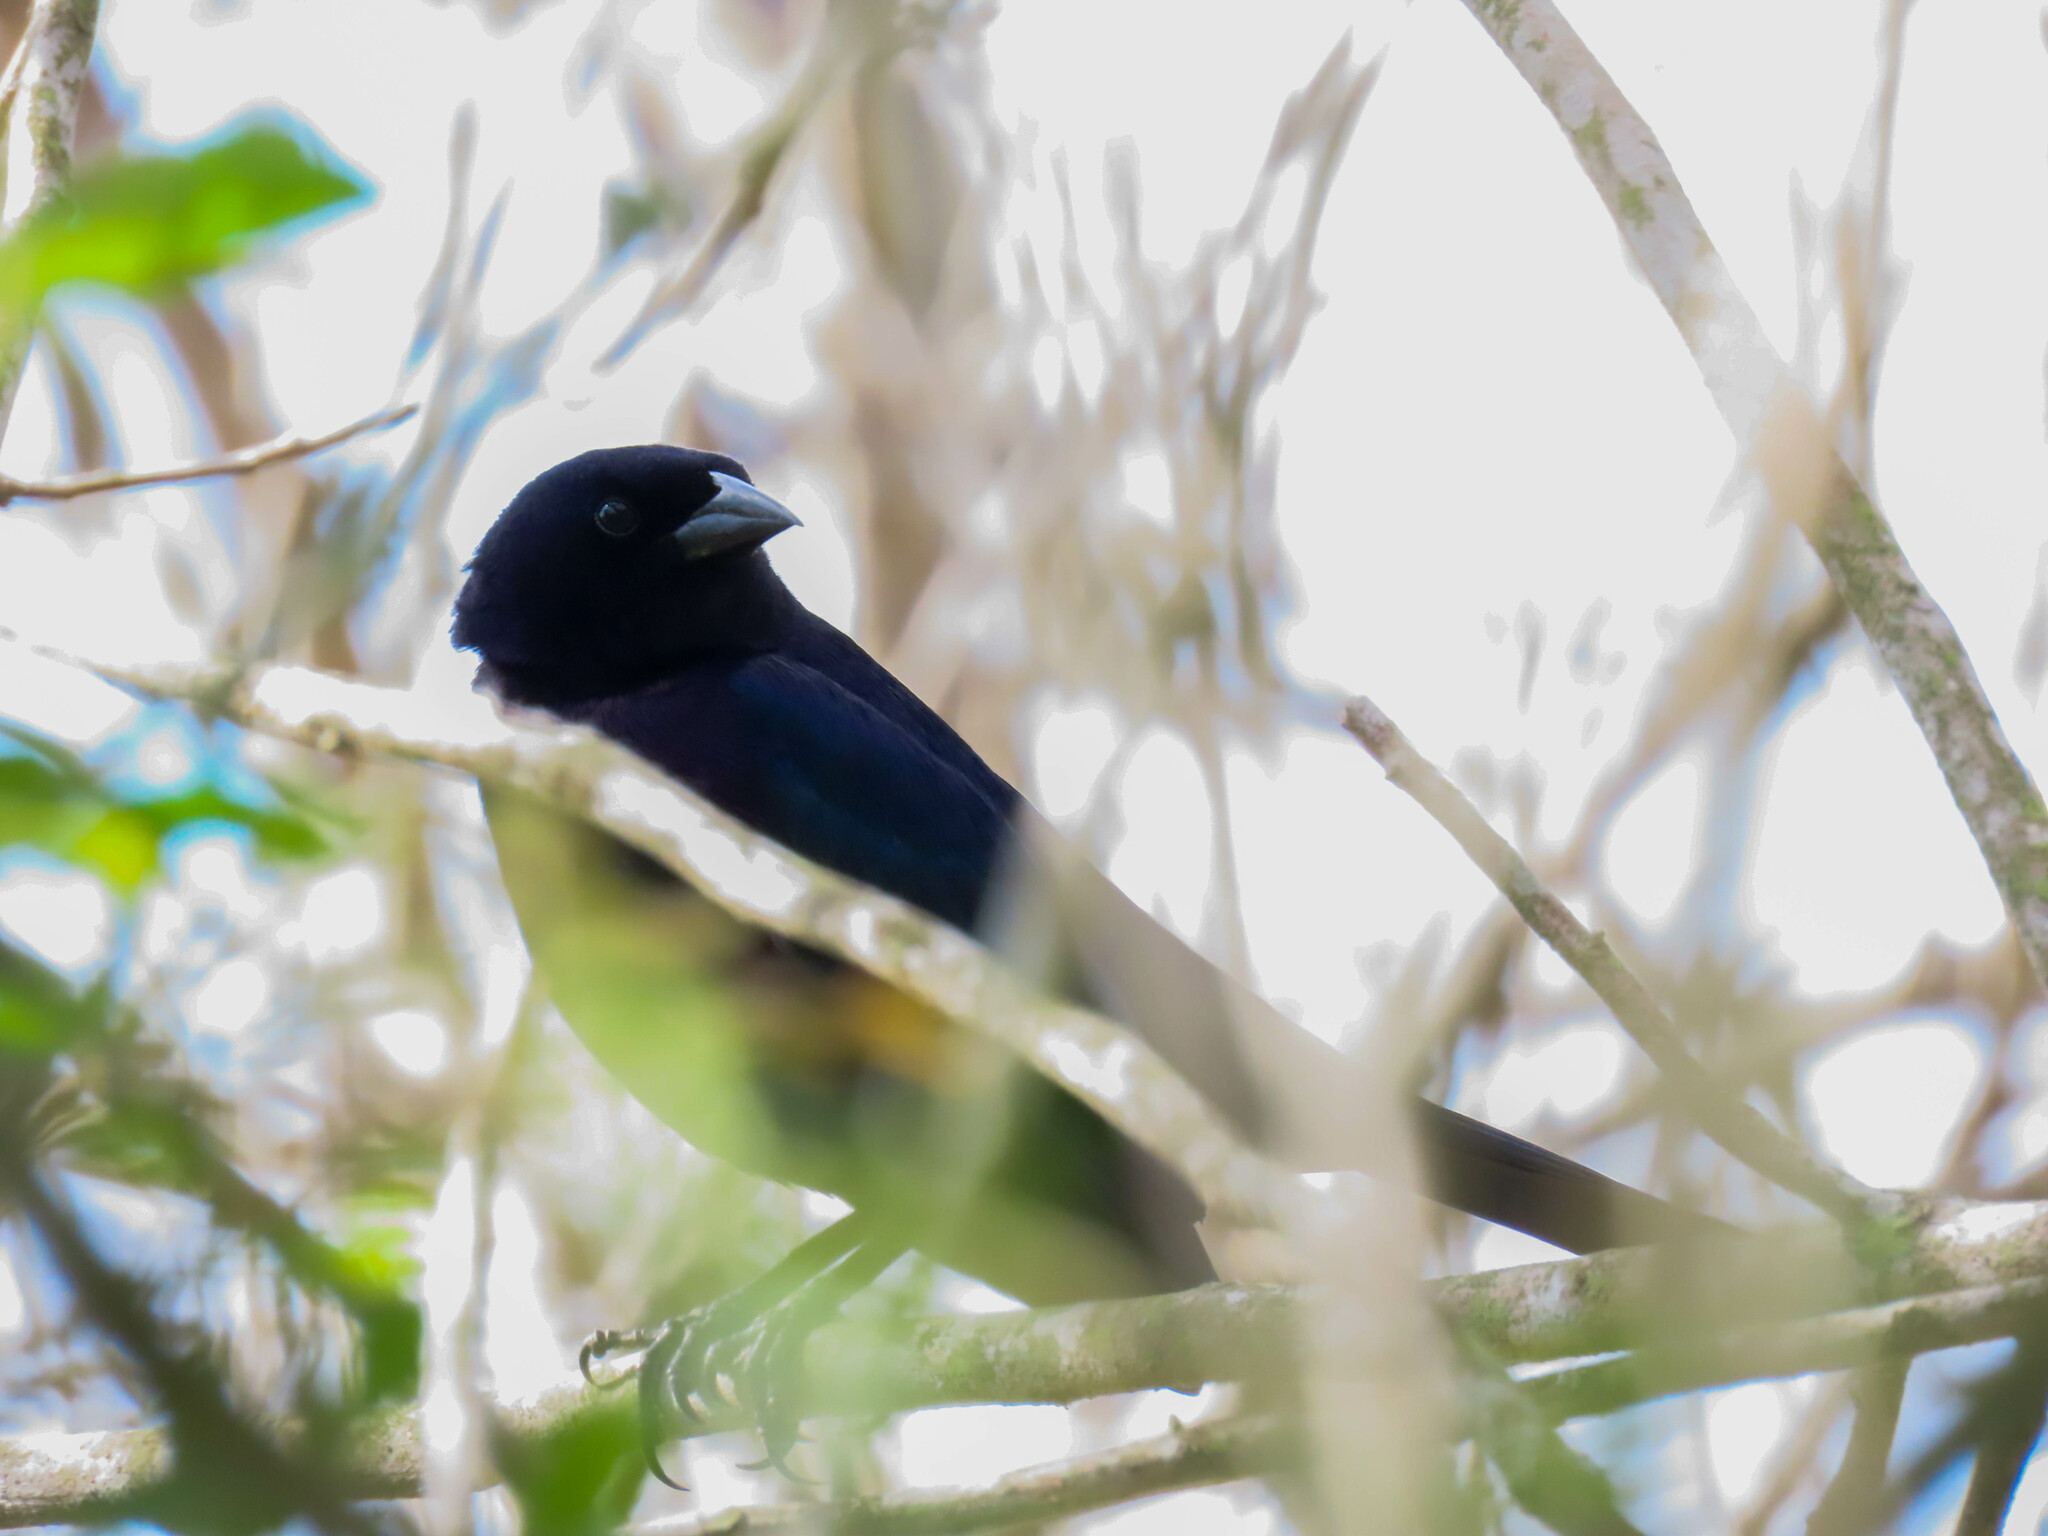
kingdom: Animalia
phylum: Chordata
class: Aves
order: Passeriformes
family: Icteridae
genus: Molothrus
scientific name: Molothrus bonariensis
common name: Shiny cowbird
